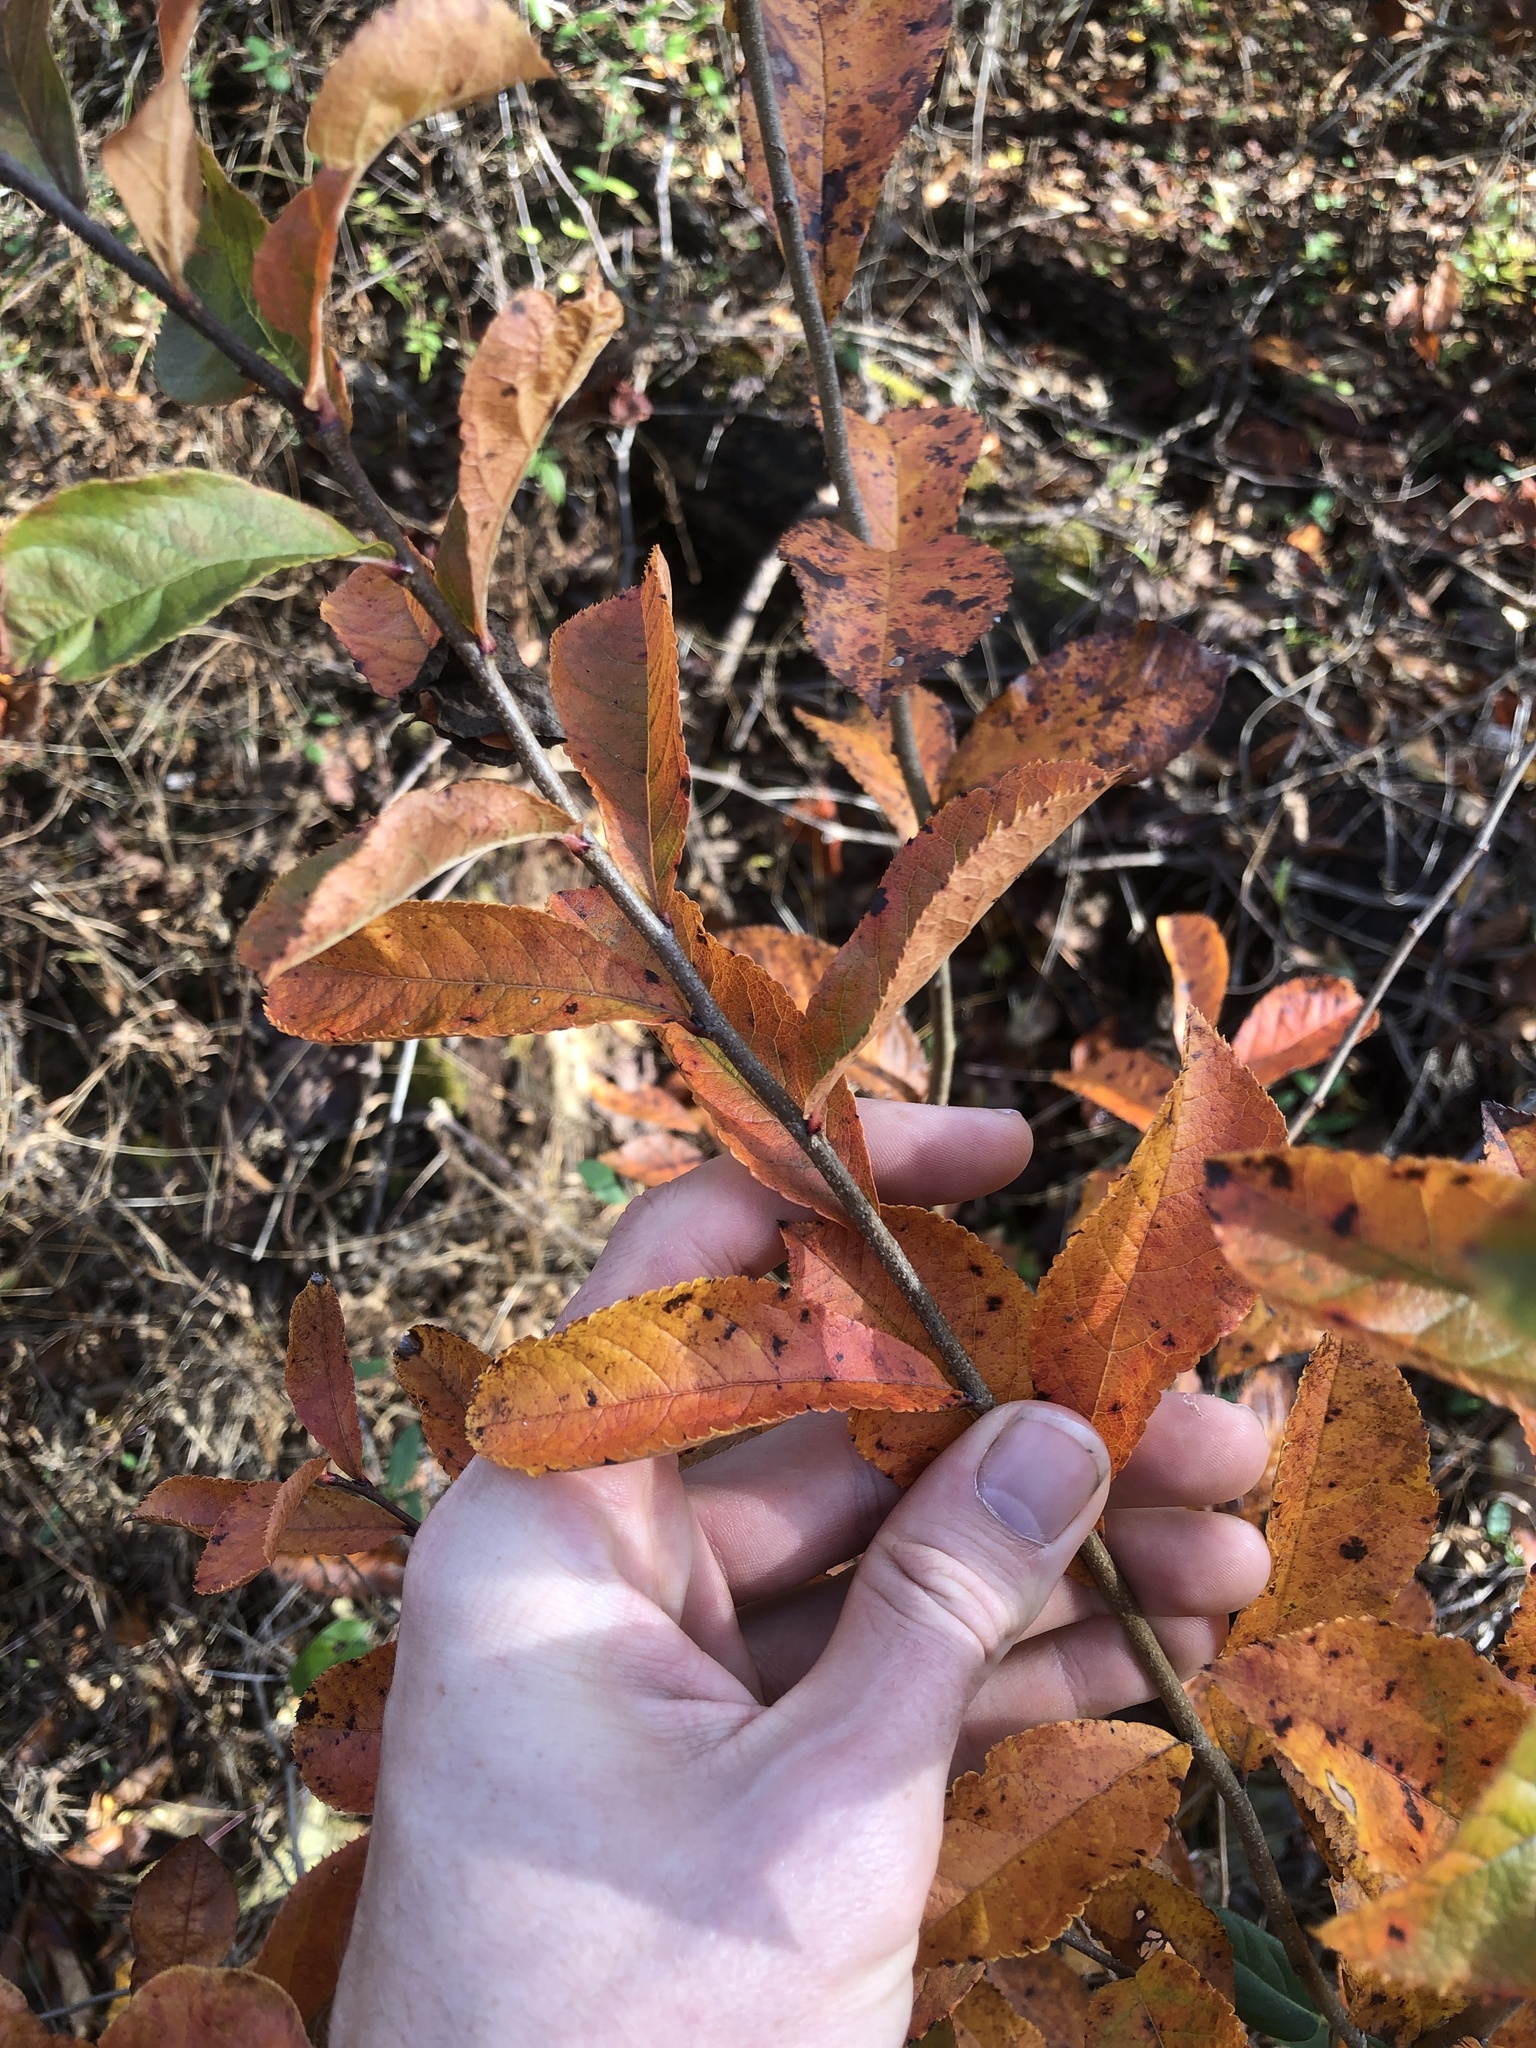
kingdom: Plantae
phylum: Tracheophyta
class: Magnoliopsida
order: Rosales
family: Rosaceae
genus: Pourthiaea
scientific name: Pourthiaea villosa
